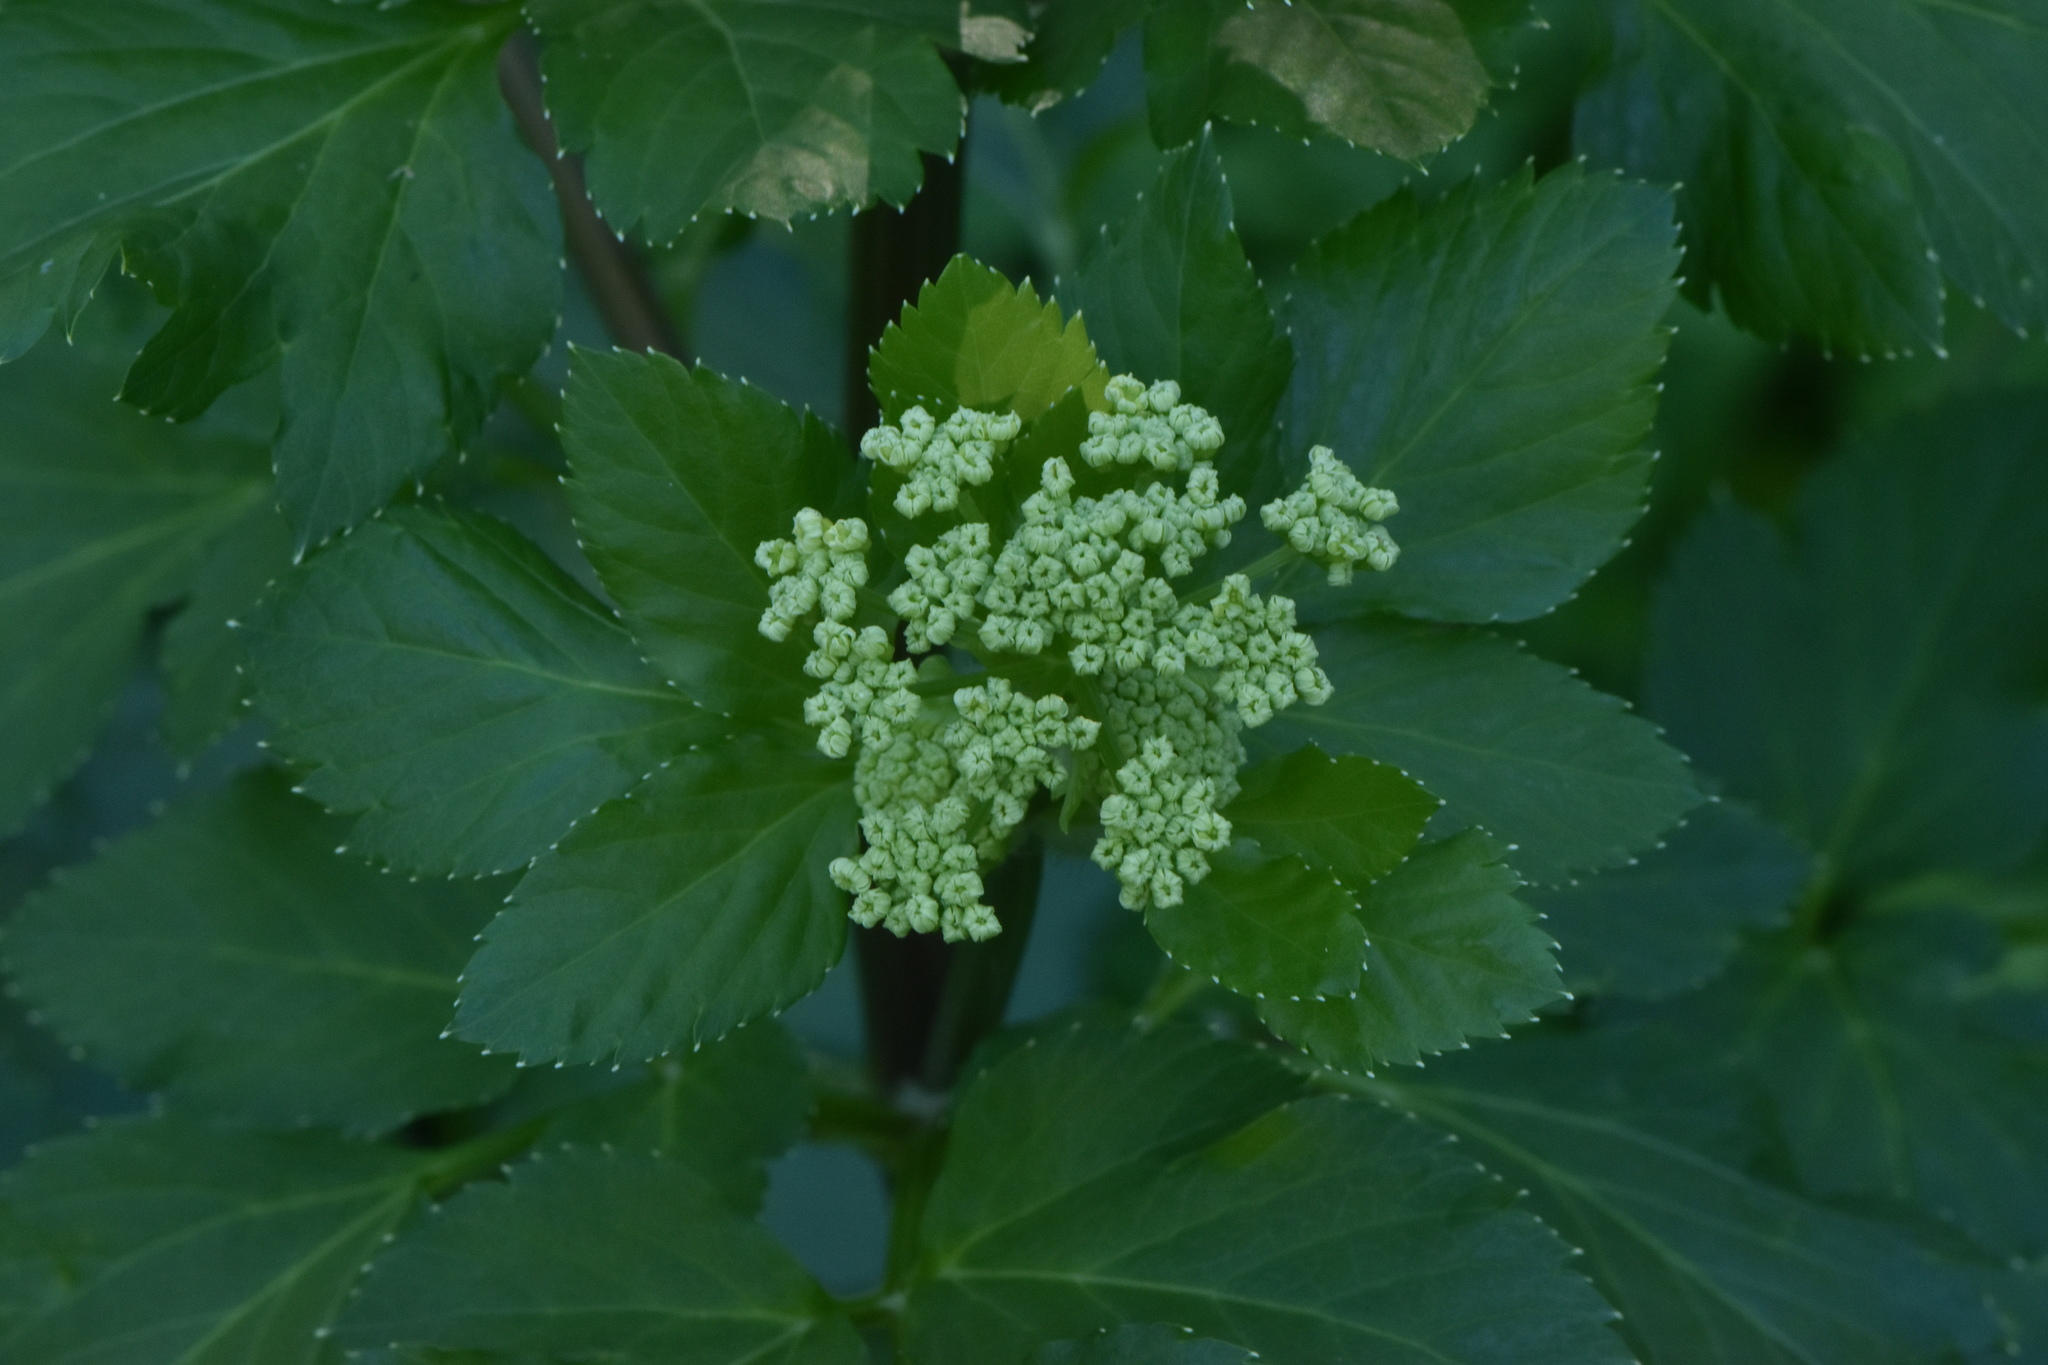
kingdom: Plantae
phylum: Tracheophyta
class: Magnoliopsida
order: Apiales
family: Apiaceae
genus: Smyrnium
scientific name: Smyrnium olusatrum
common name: Alexanders
